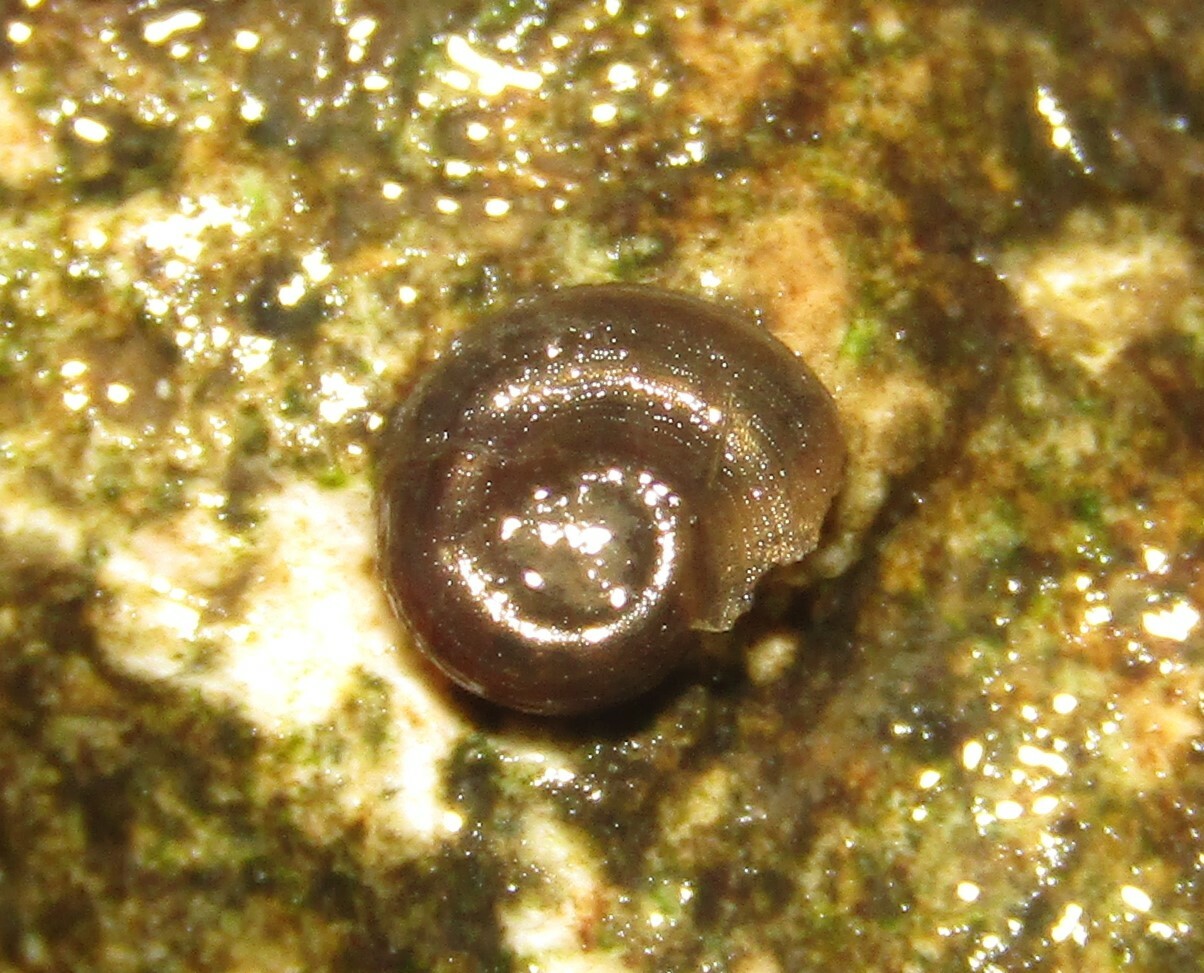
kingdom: Animalia
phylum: Mollusca
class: Gastropoda
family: Planorbidae
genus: Gyraulus
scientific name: Gyraulus albus
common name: White ramshorn
